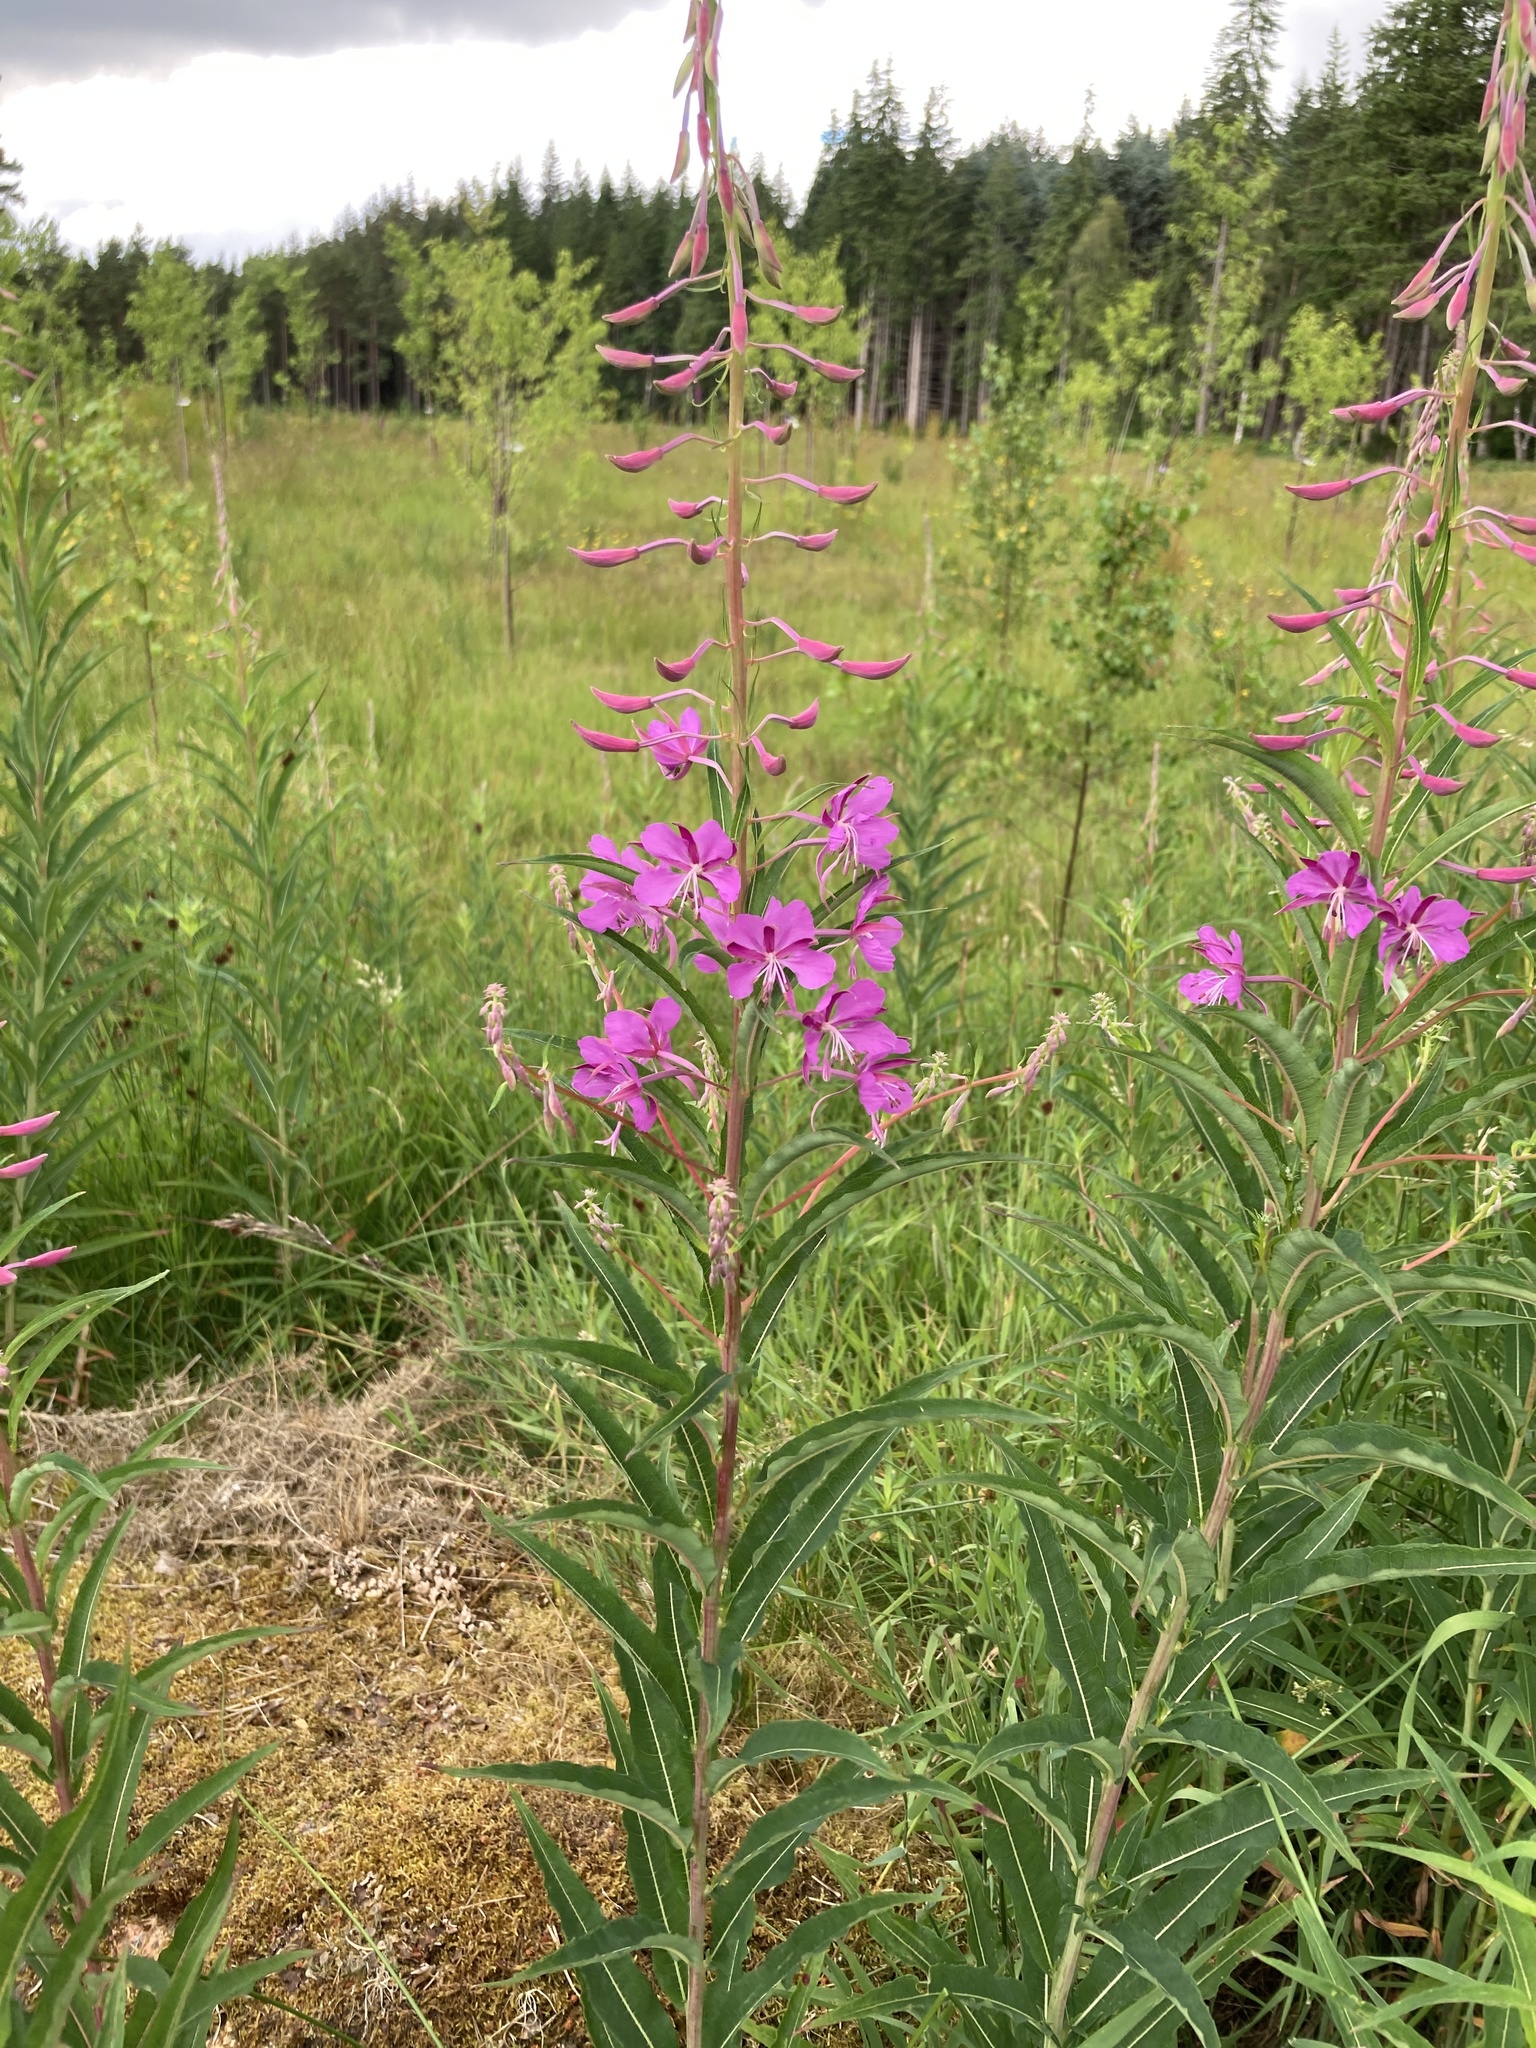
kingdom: Plantae
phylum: Tracheophyta
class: Magnoliopsida
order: Myrtales
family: Onagraceae
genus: Chamaenerion
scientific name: Chamaenerion angustifolium
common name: Fireweed
